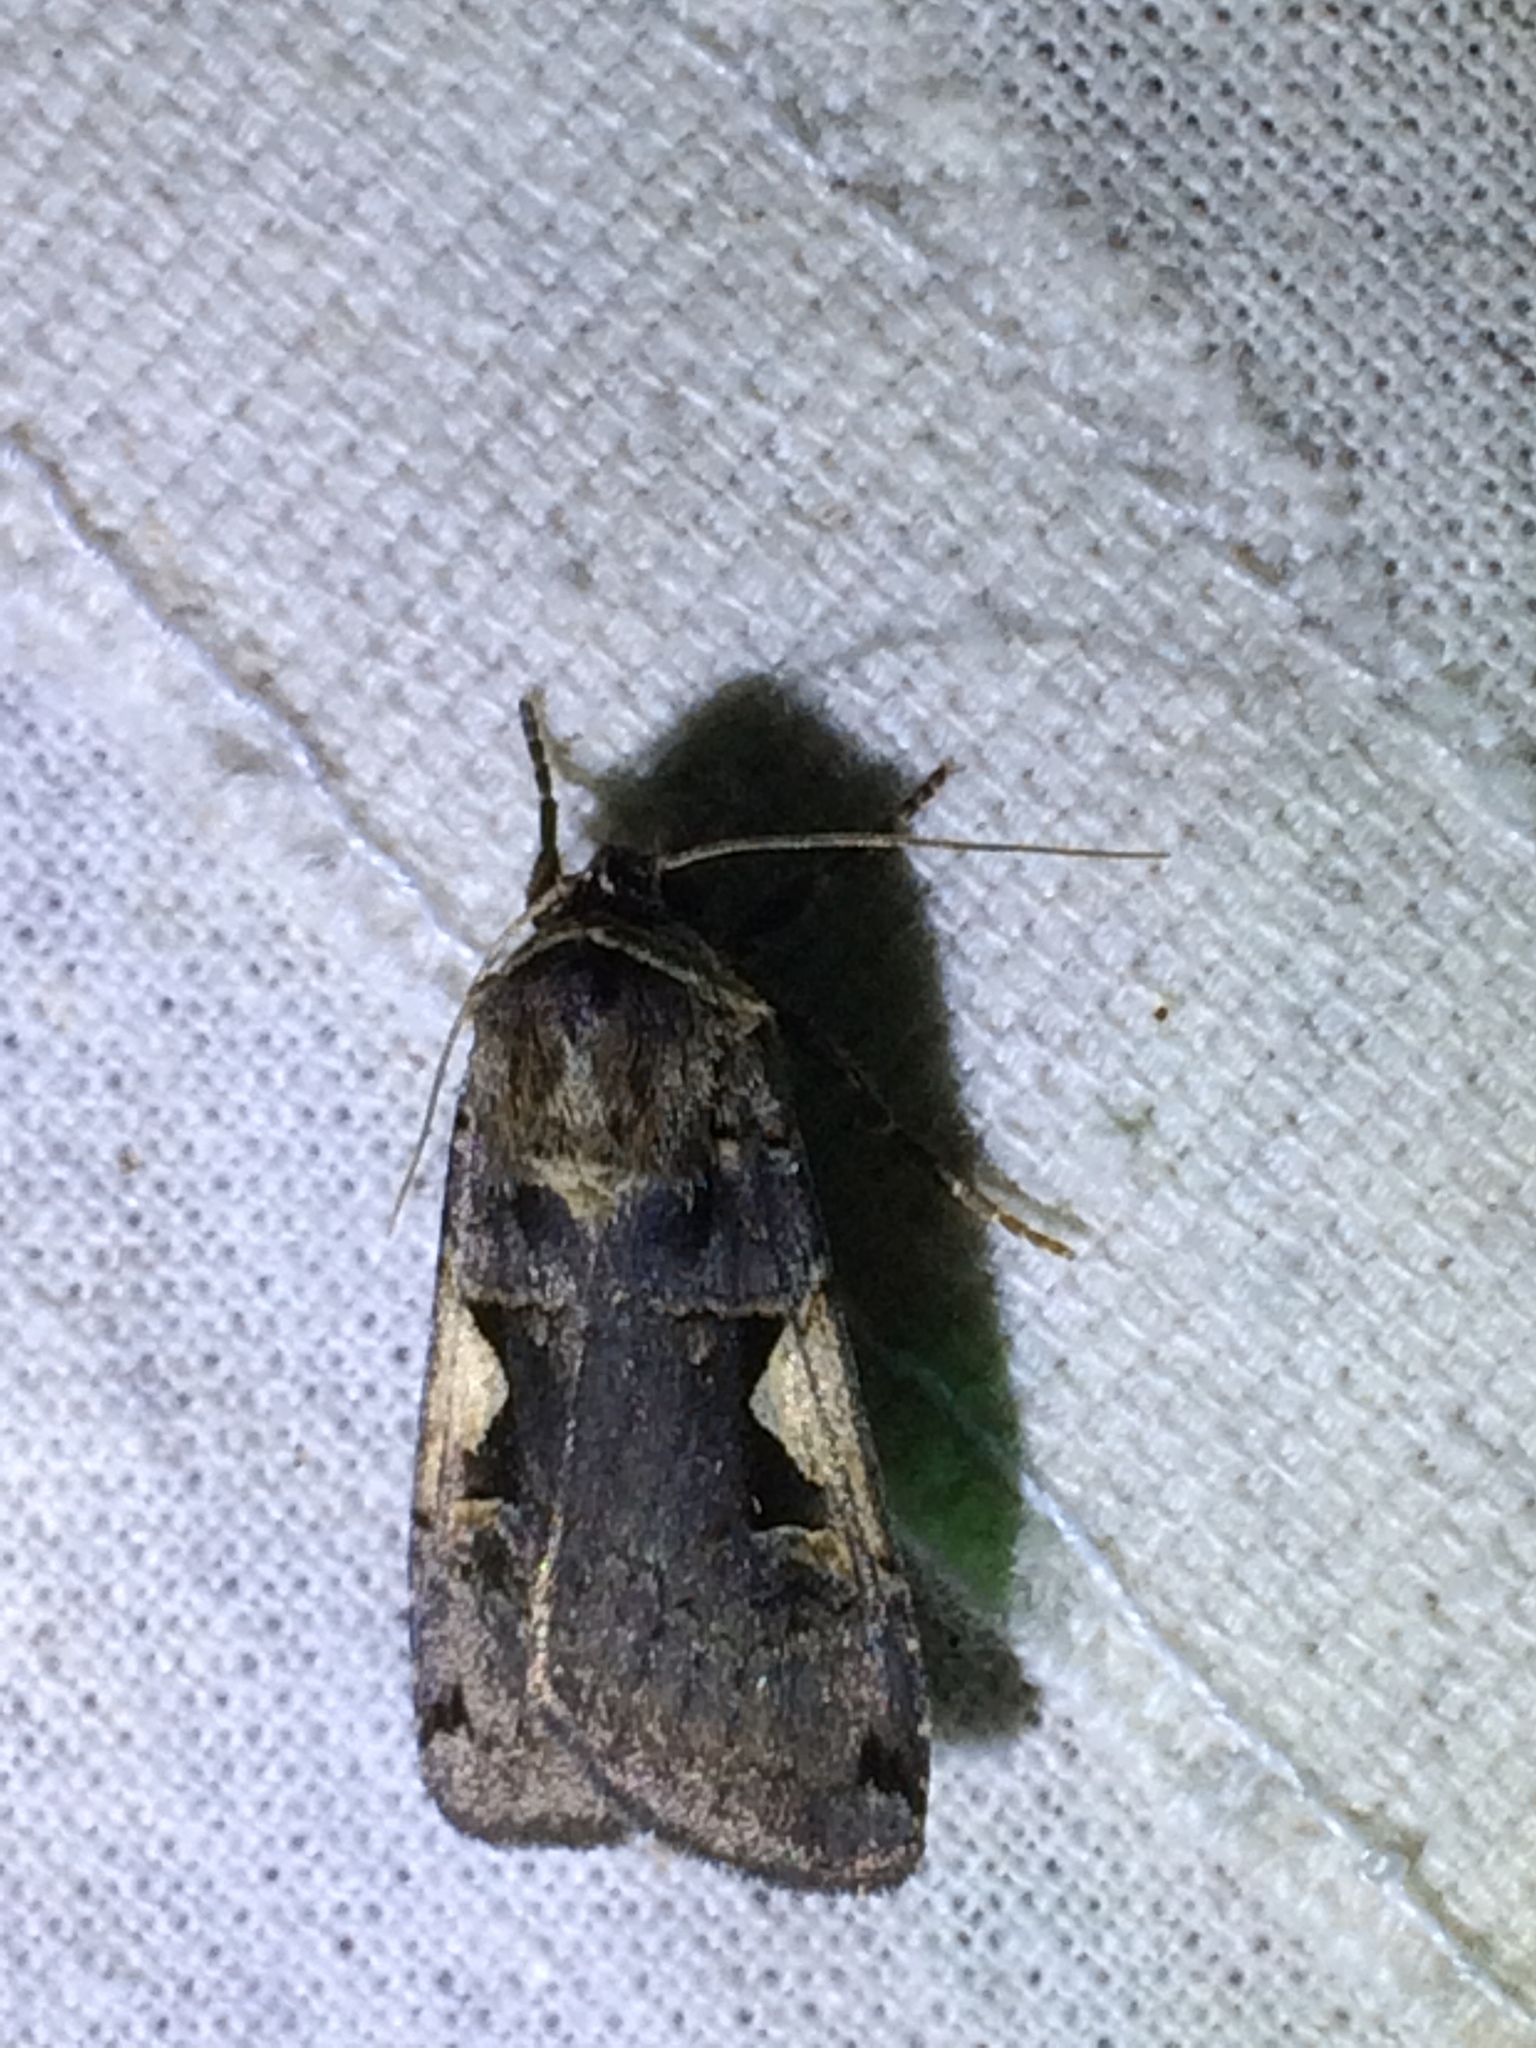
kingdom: Animalia
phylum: Arthropoda
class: Insecta
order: Lepidoptera
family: Noctuidae
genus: Xestia
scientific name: Xestia c-nigrum
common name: Setaceous hebrew character
